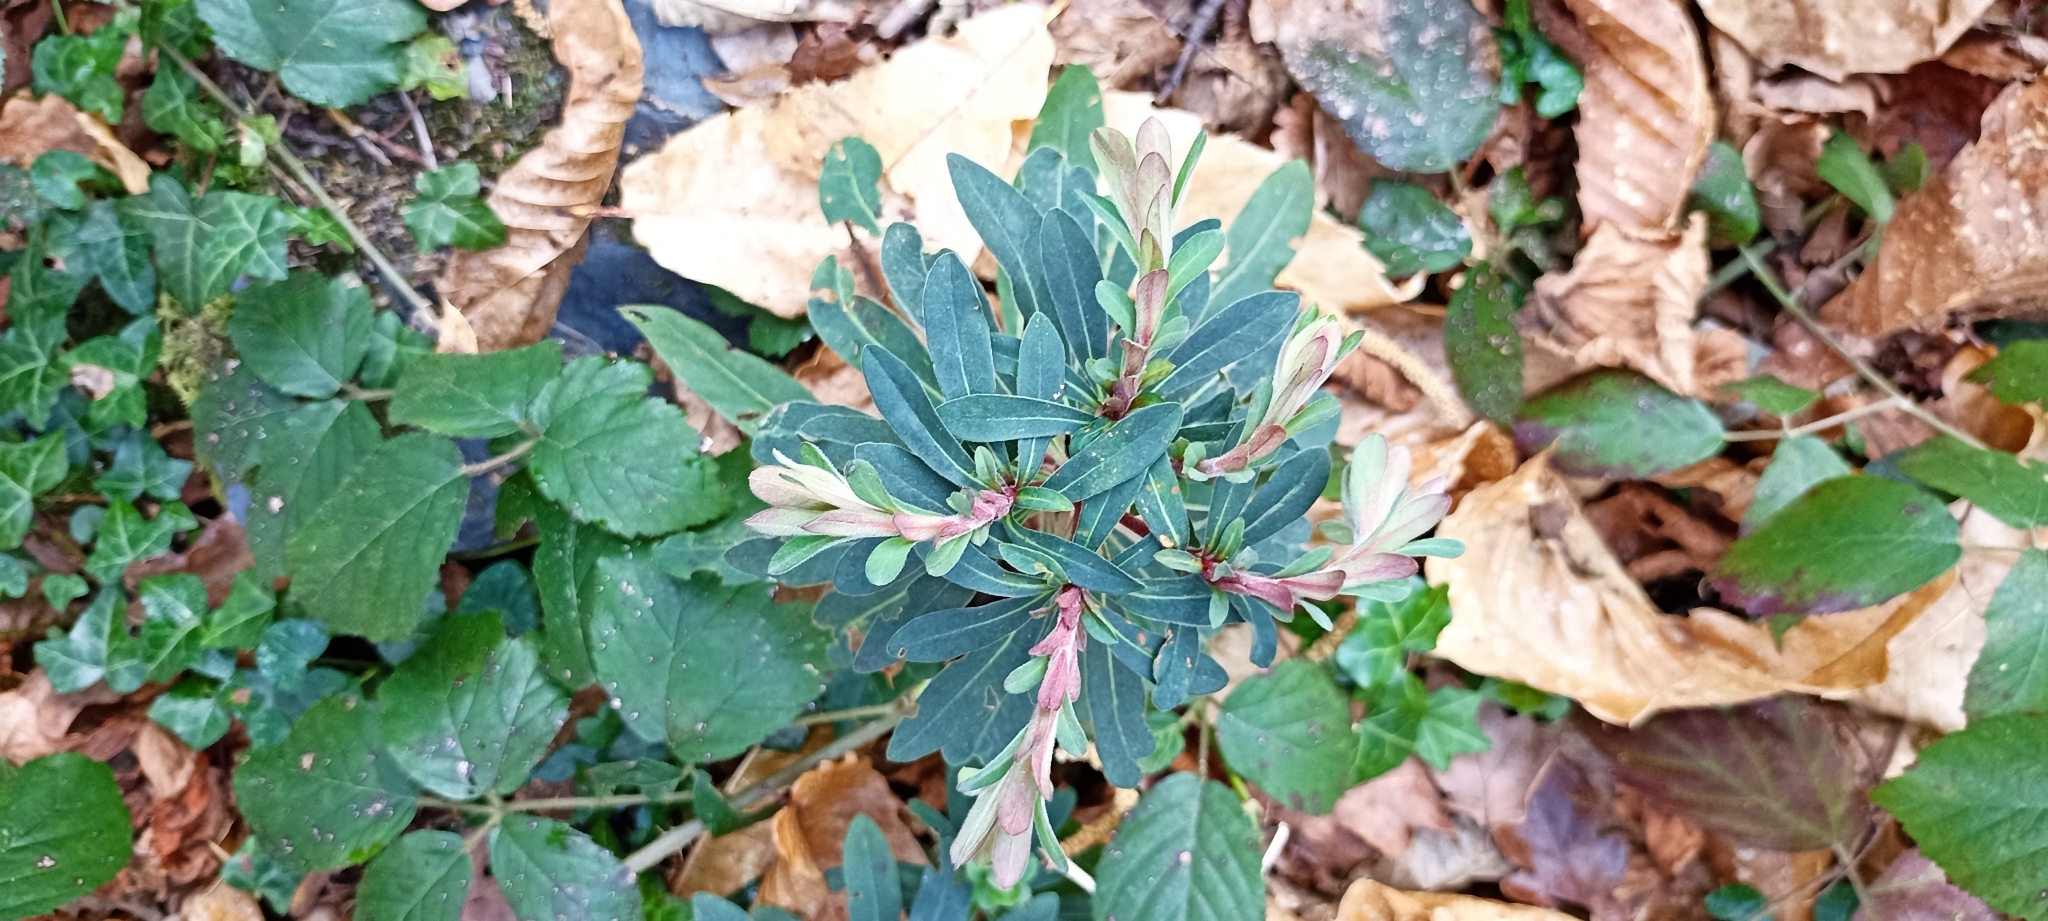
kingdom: Plantae
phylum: Tracheophyta
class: Magnoliopsida
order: Malpighiales
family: Euphorbiaceae
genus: Euphorbia
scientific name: Euphorbia amygdaloides
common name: Wood spurge
